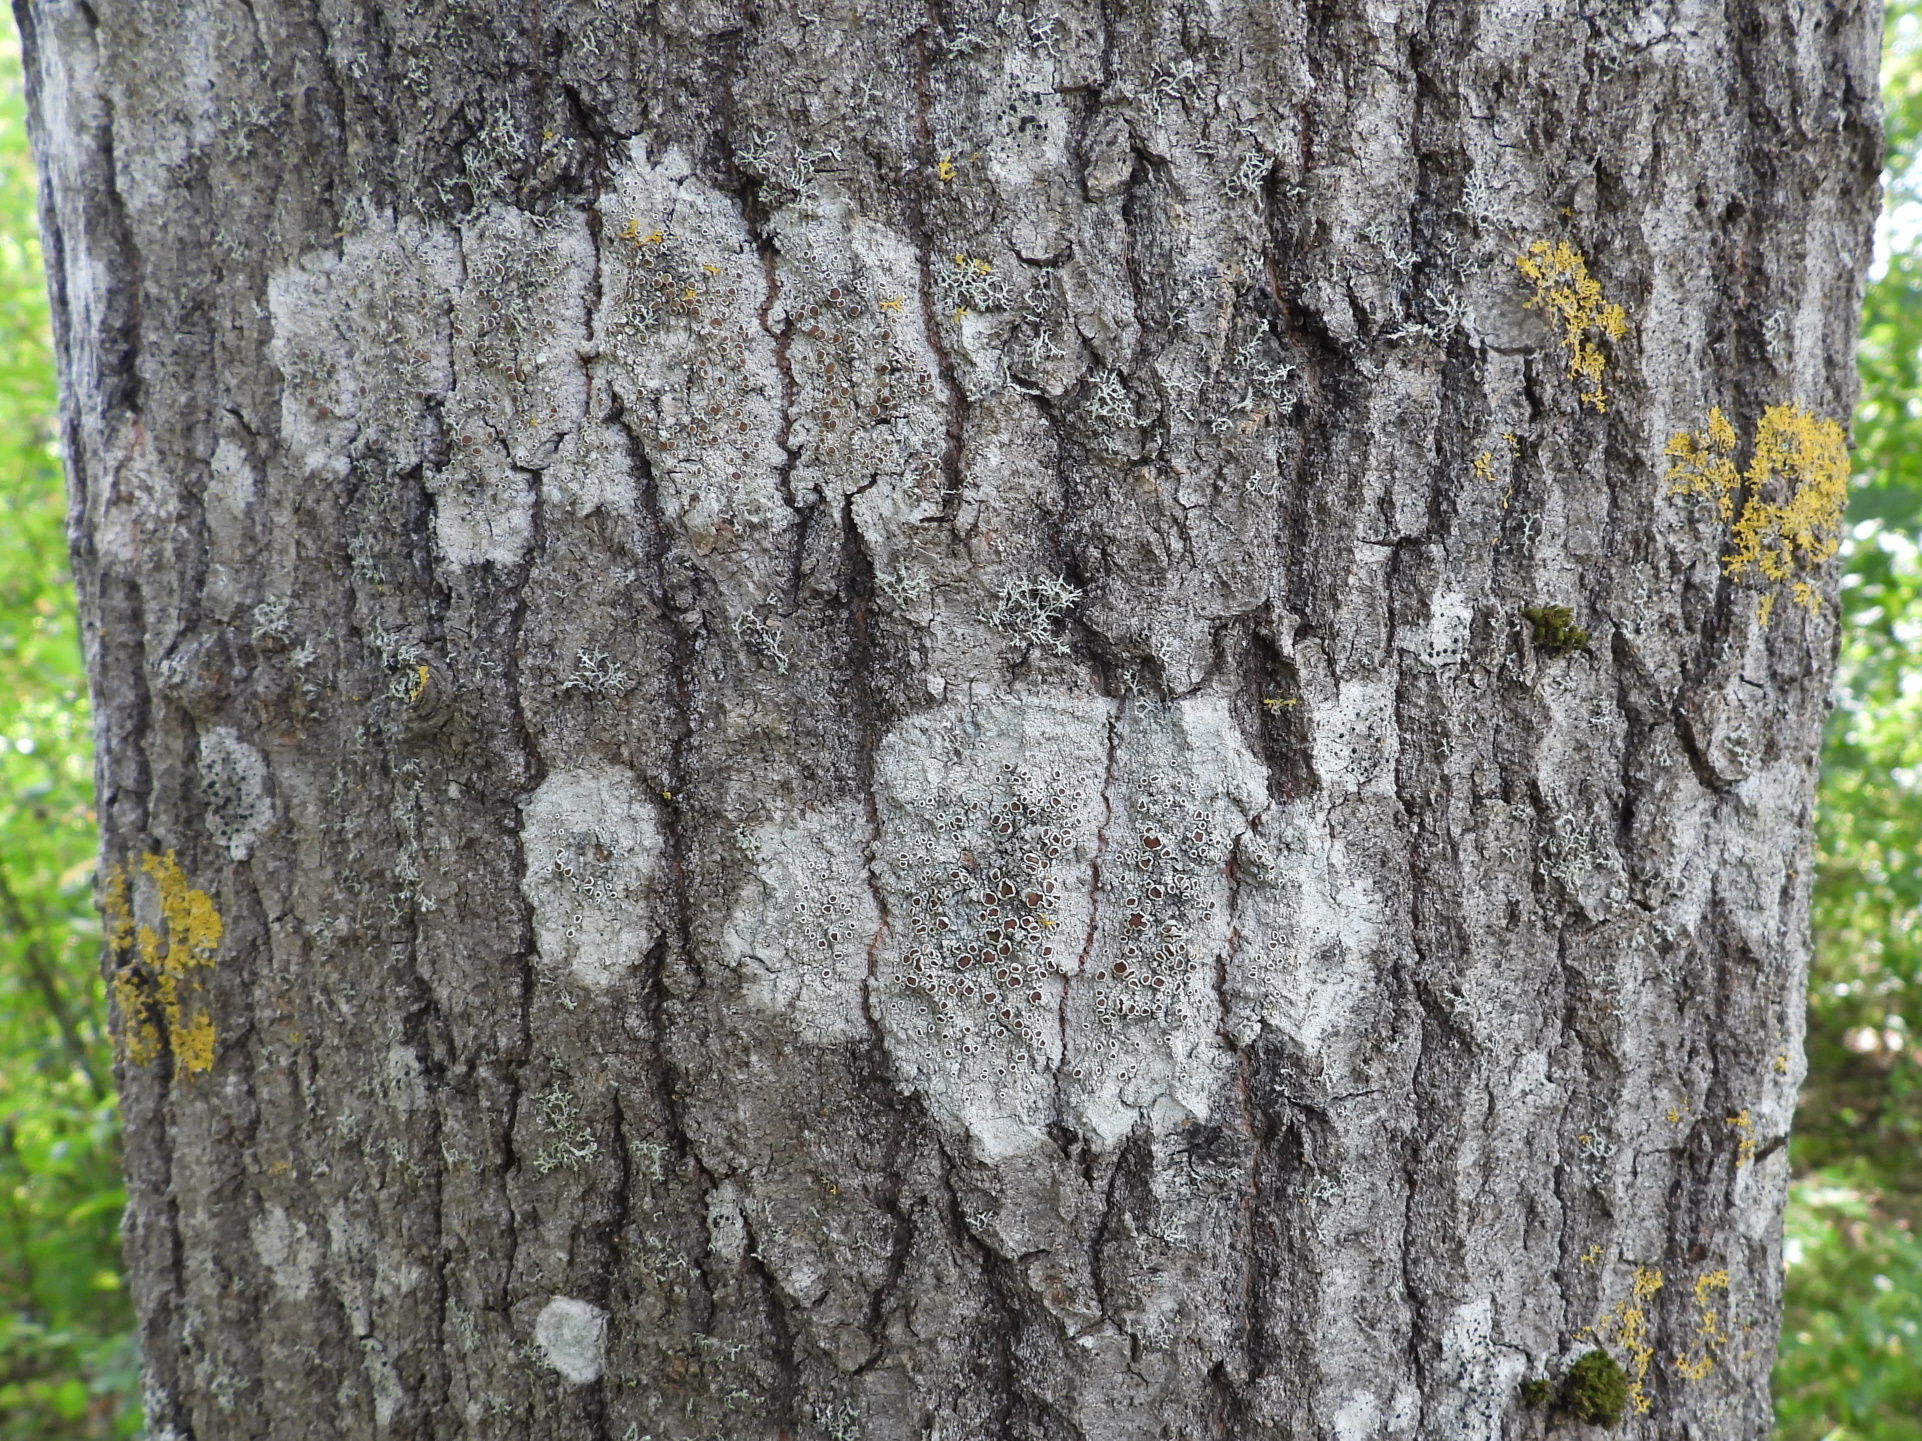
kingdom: Fungi
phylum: Ascomycota
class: Lecanoromycetes
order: Lecanorales
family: Lecanoraceae
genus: Lecanora
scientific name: Lecanora albella
